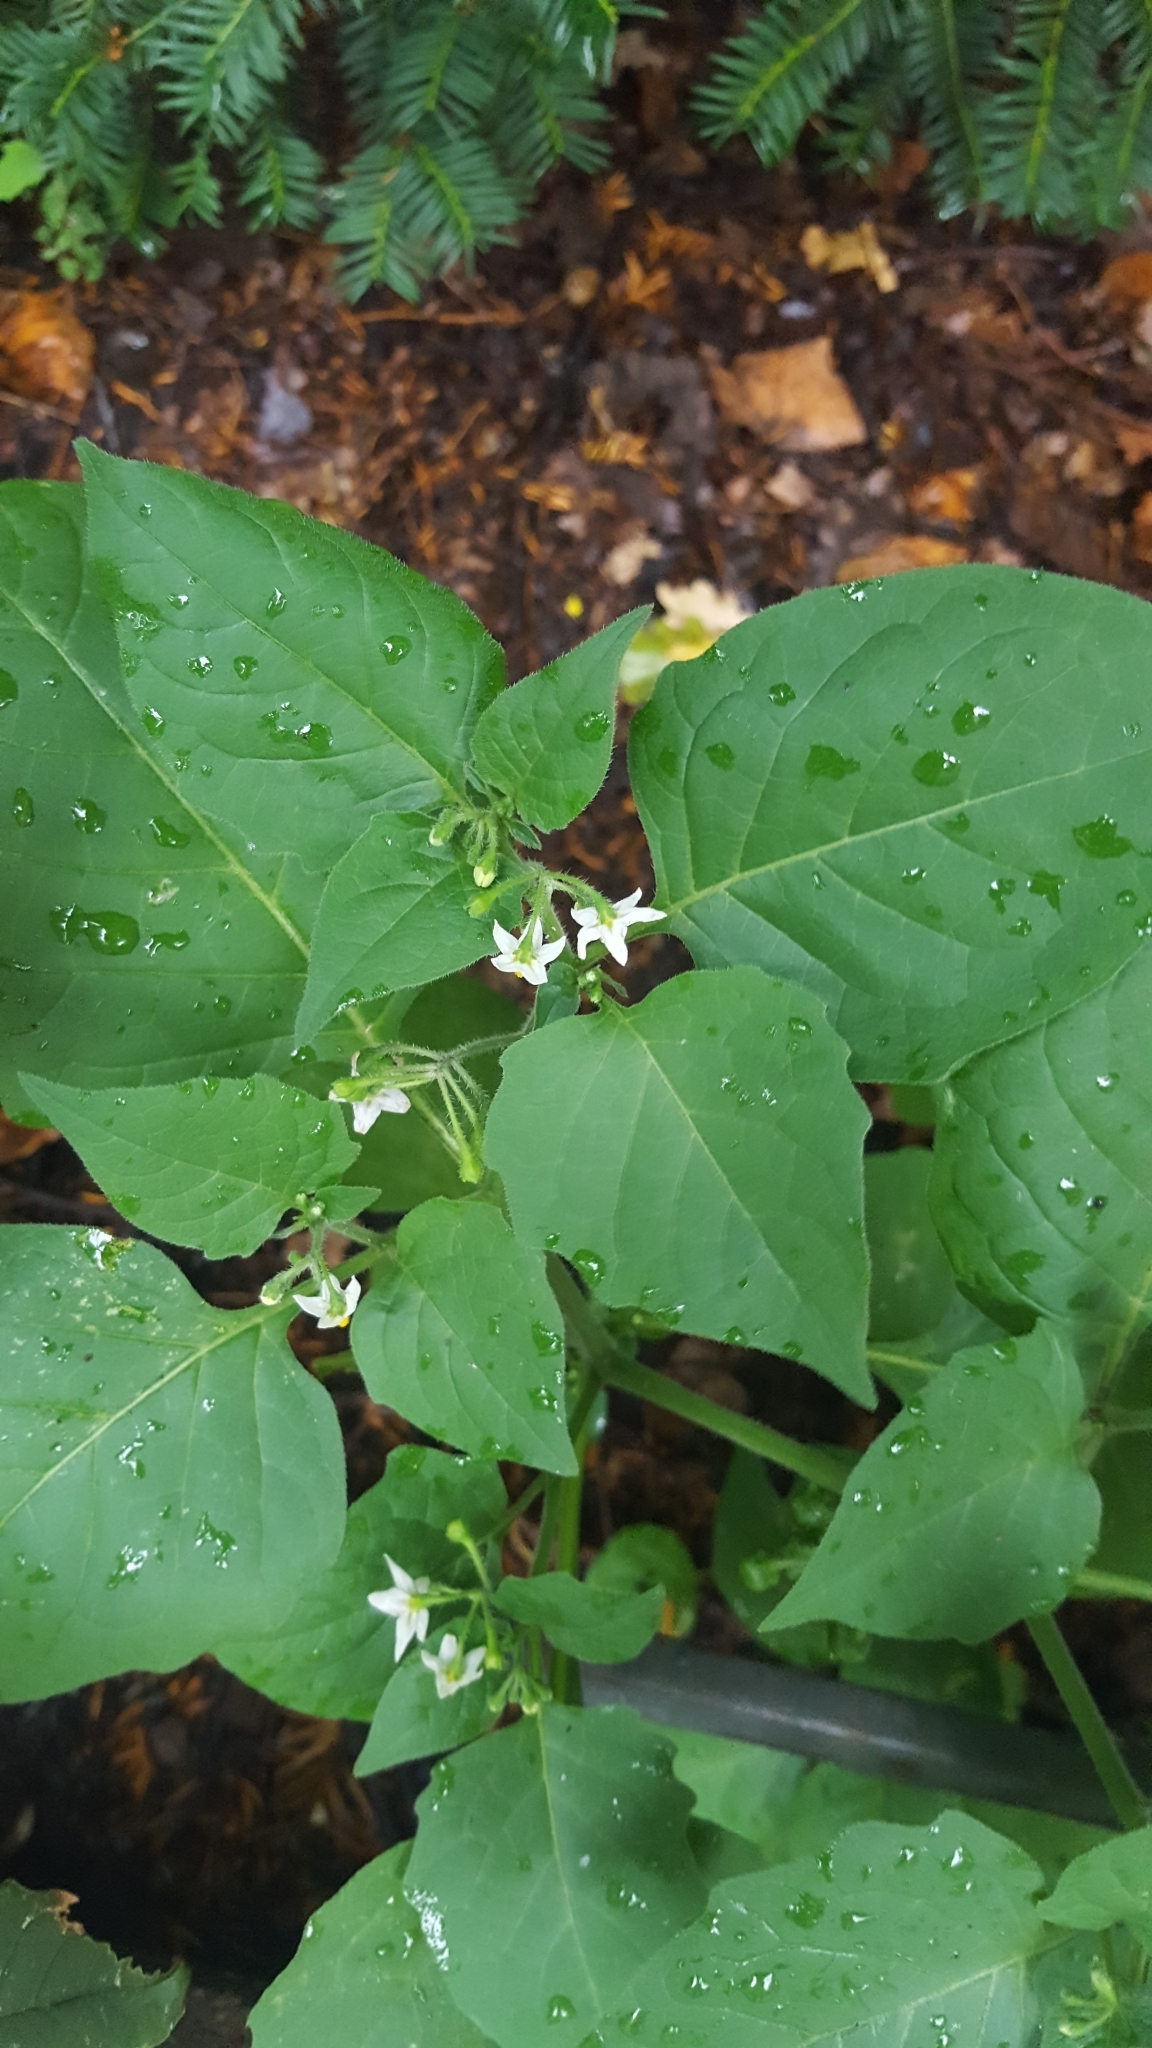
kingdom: Plantae
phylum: Tracheophyta
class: Magnoliopsida
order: Solanales
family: Solanaceae
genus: Solanum
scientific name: Solanum nigrum
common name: Black nightshade
